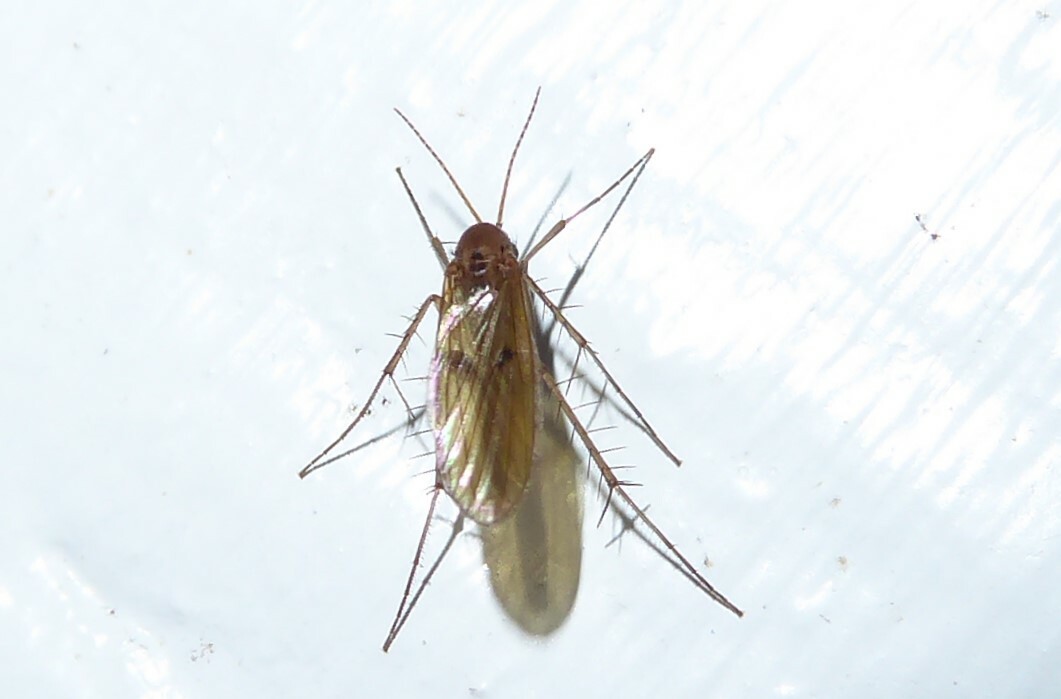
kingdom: Animalia
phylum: Arthropoda
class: Insecta
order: Diptera
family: Mycetophilidae
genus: Mycetophila
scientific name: Mycetophila fagi
